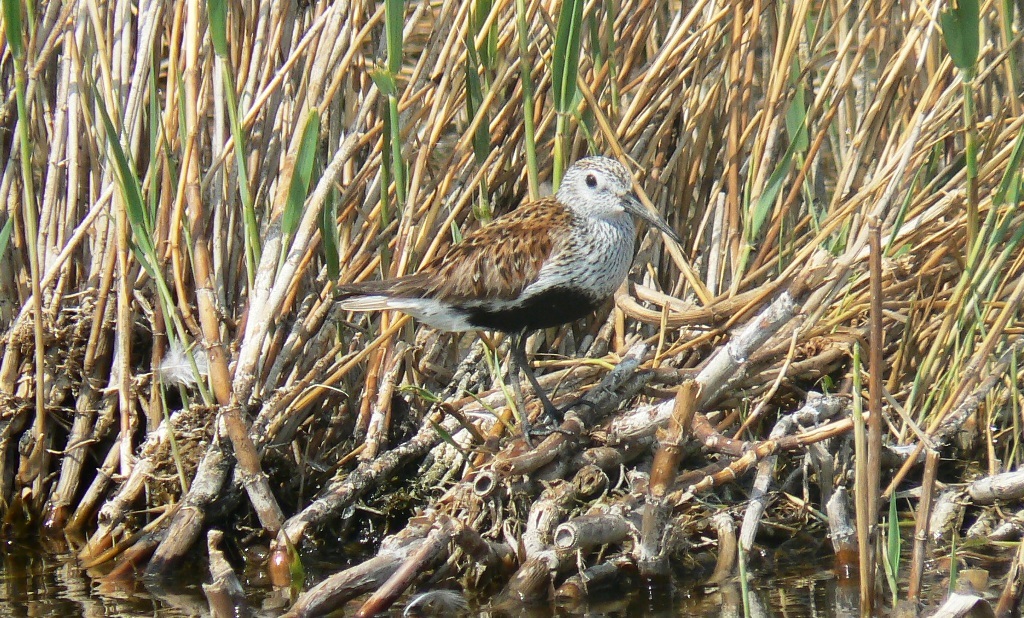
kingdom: Animalia
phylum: Chordata
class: Aves
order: Charadriiformes
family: Scolopacidae
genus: Calidris
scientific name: Calidris alpina
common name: Dunlin
